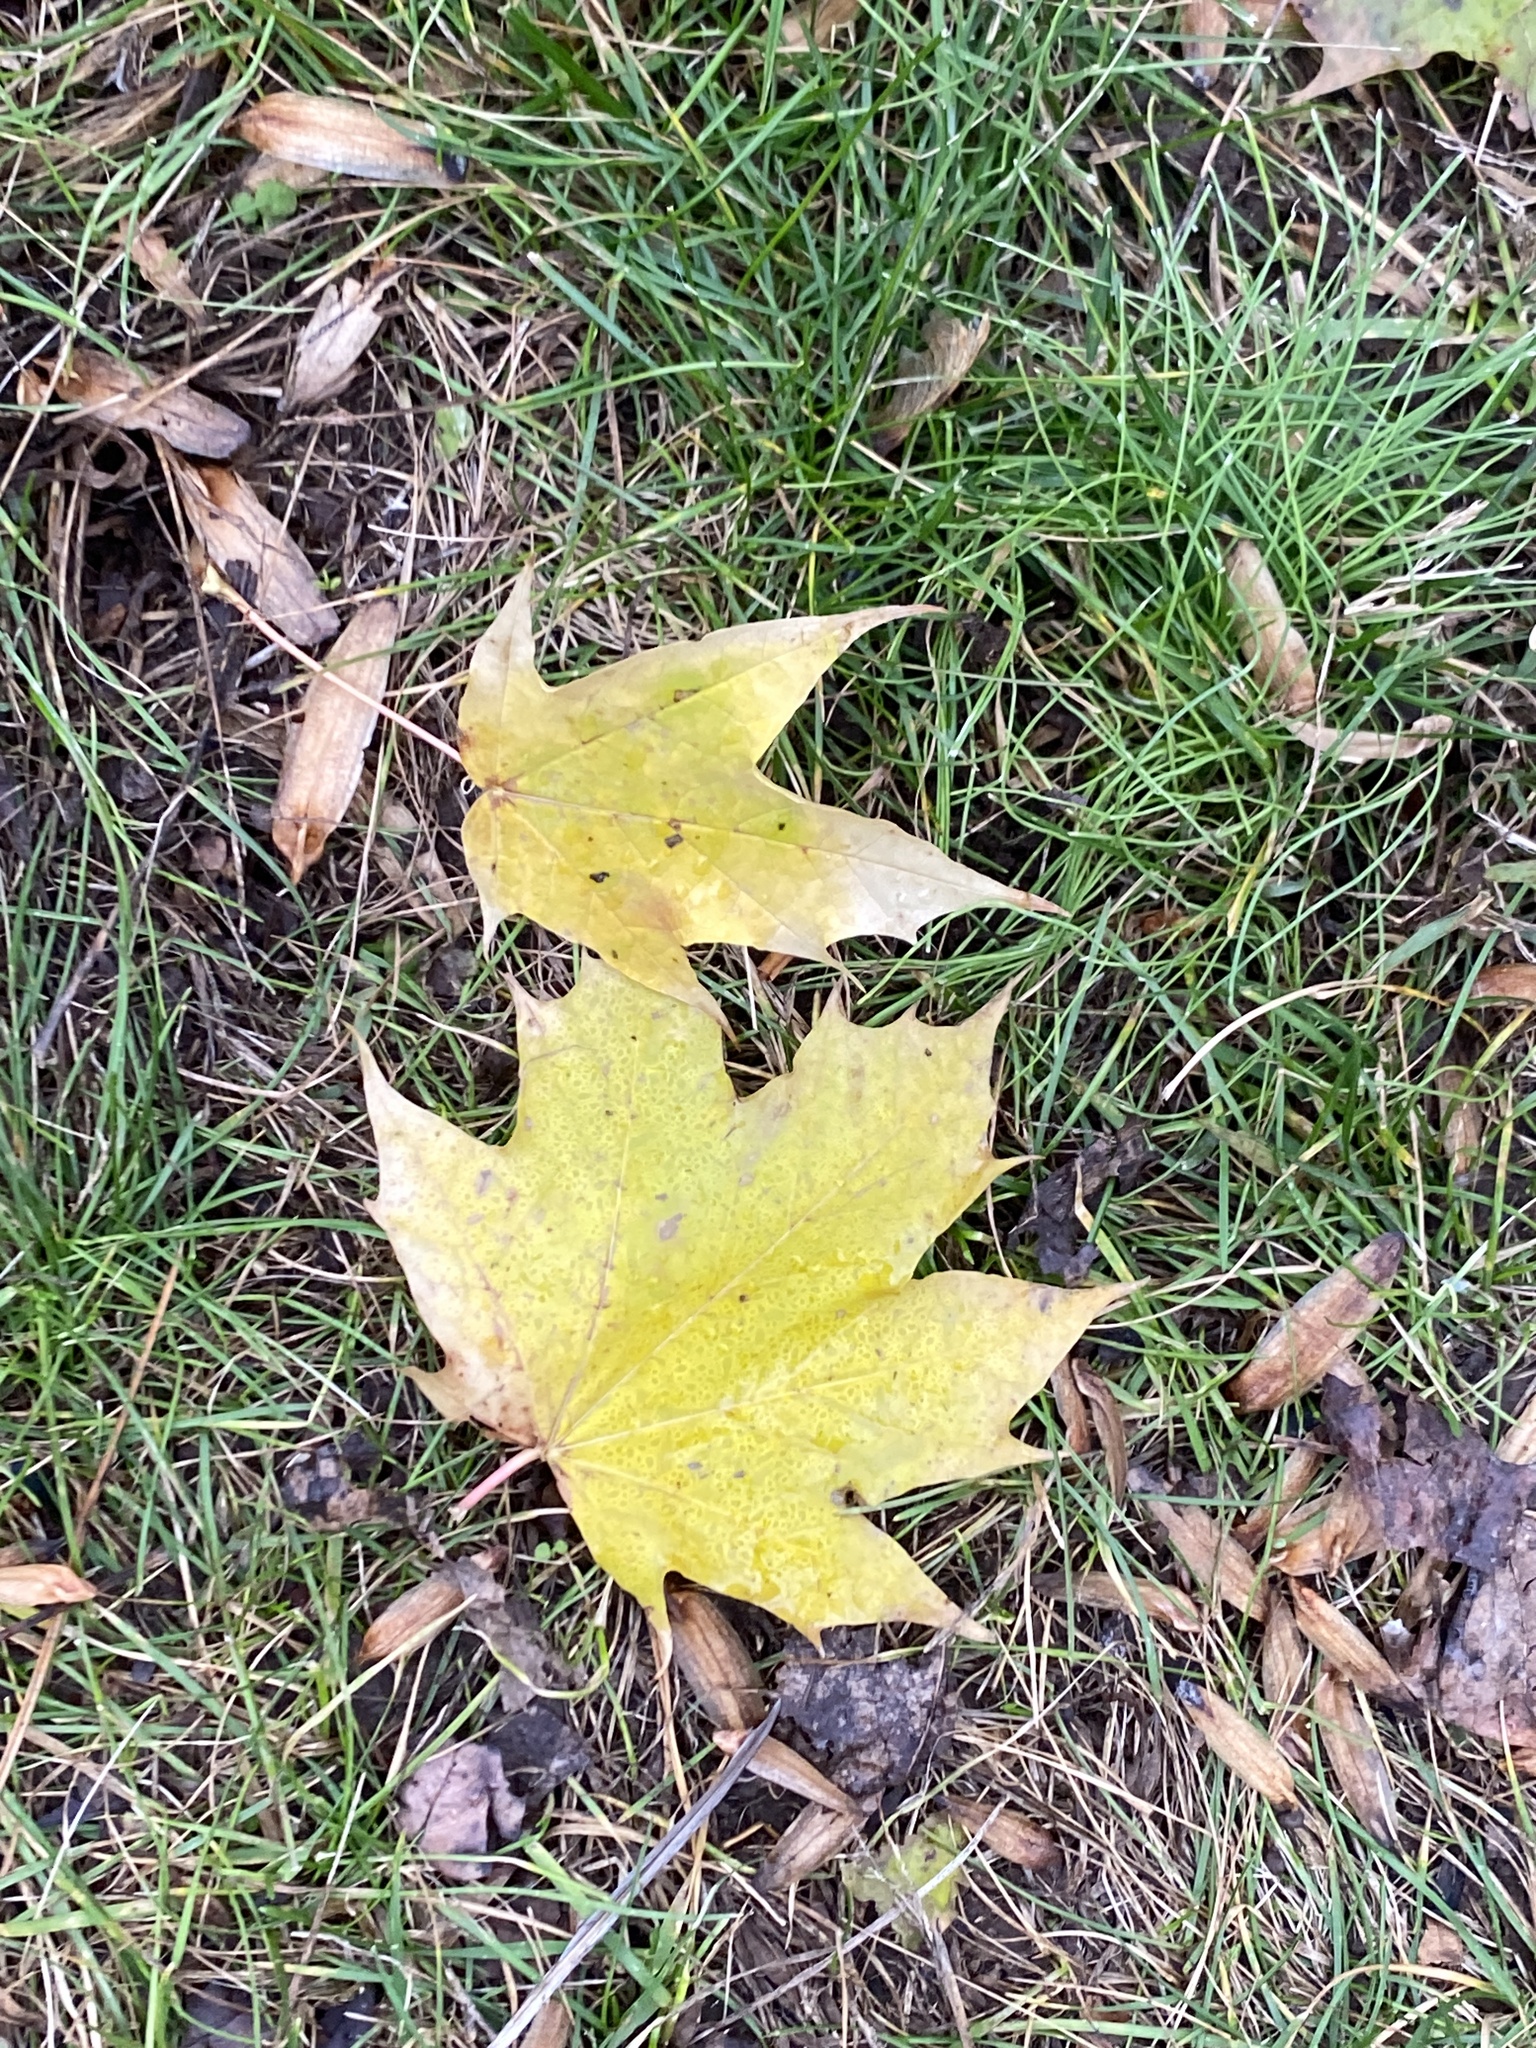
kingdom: Plantae
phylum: Tracheophyta
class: Magnoliopsida
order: Sapindales
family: Sapindaceae
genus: Acer
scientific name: Acer platanoides
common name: Norway maple
